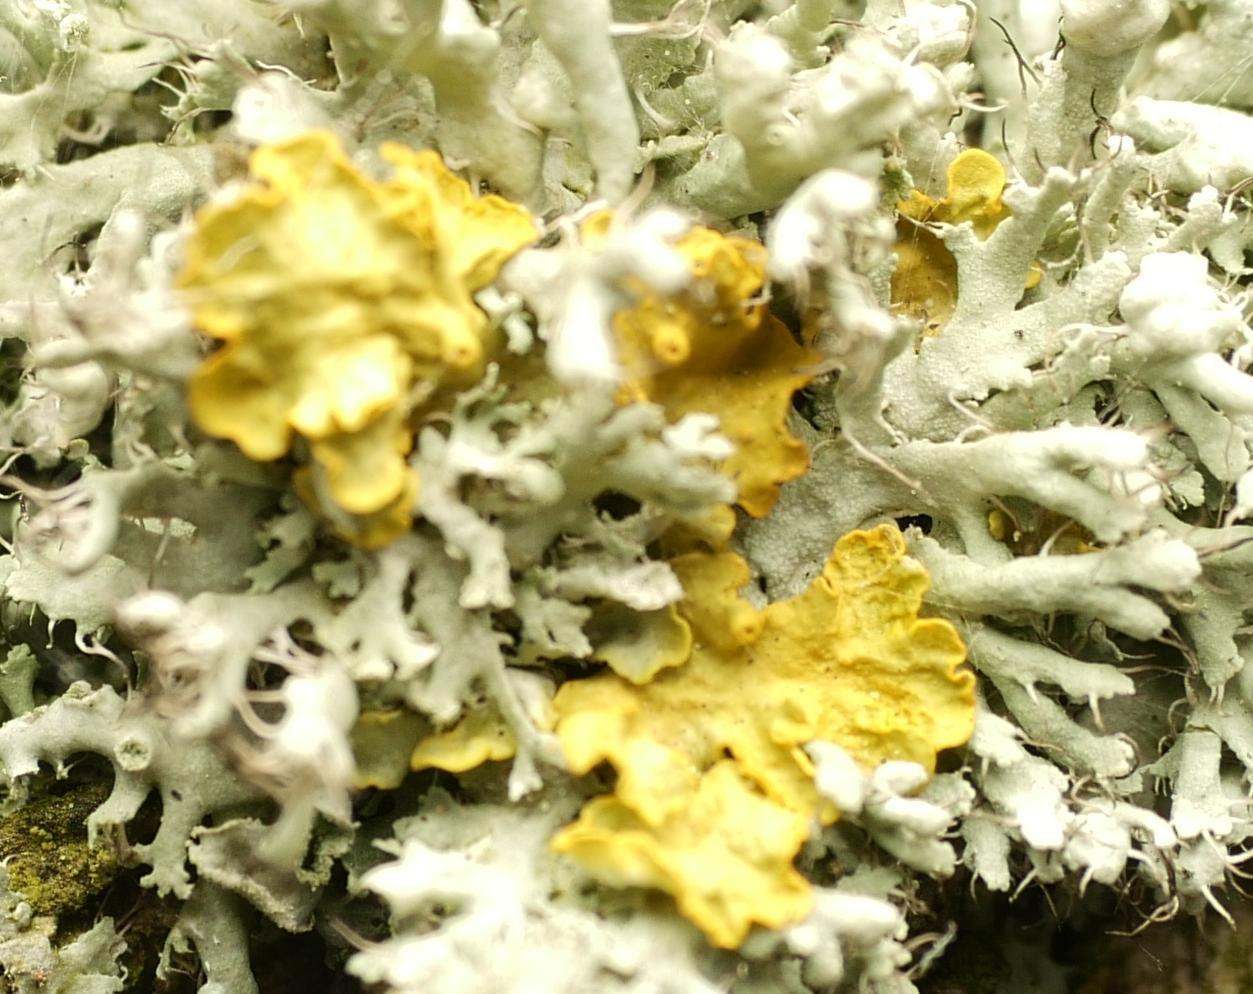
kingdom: Fungi
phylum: Ascomycota
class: Lecanoromycetes
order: Teloschistales
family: Teloschistaceae
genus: Xanthoria
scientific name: Xanthoria parietina
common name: Common orange lichen
